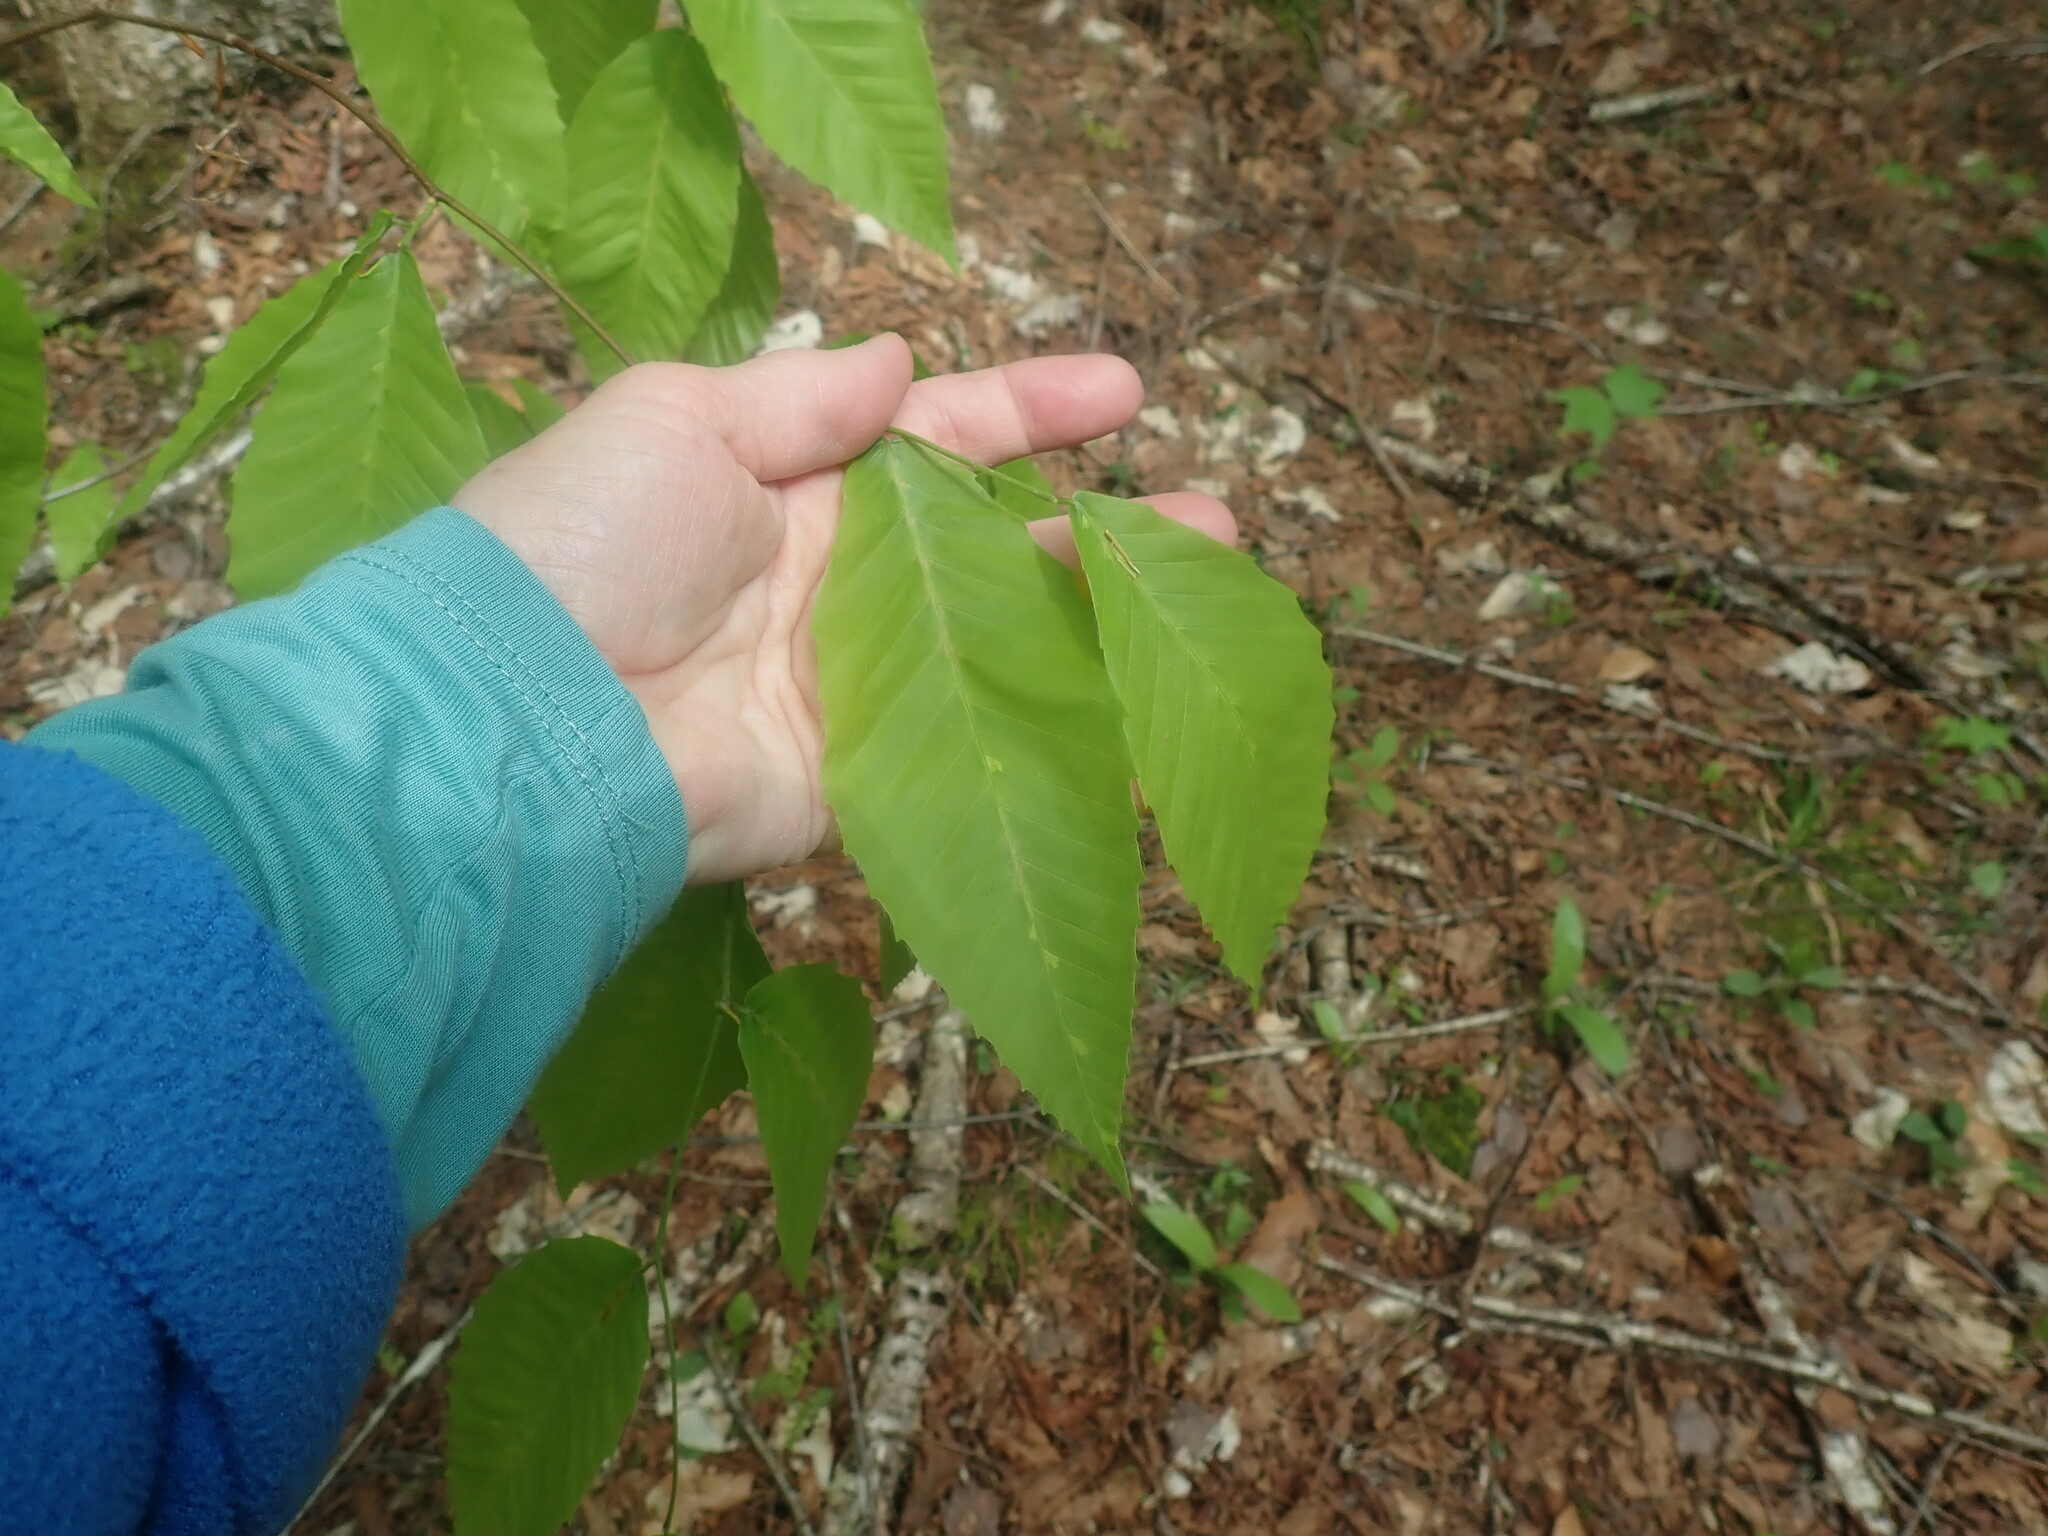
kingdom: Plantae
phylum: Tracheophyta
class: Magnoliopsida
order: Fagales
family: Fagaceae
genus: Fagus
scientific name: Fagus grandifolia
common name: American beech
